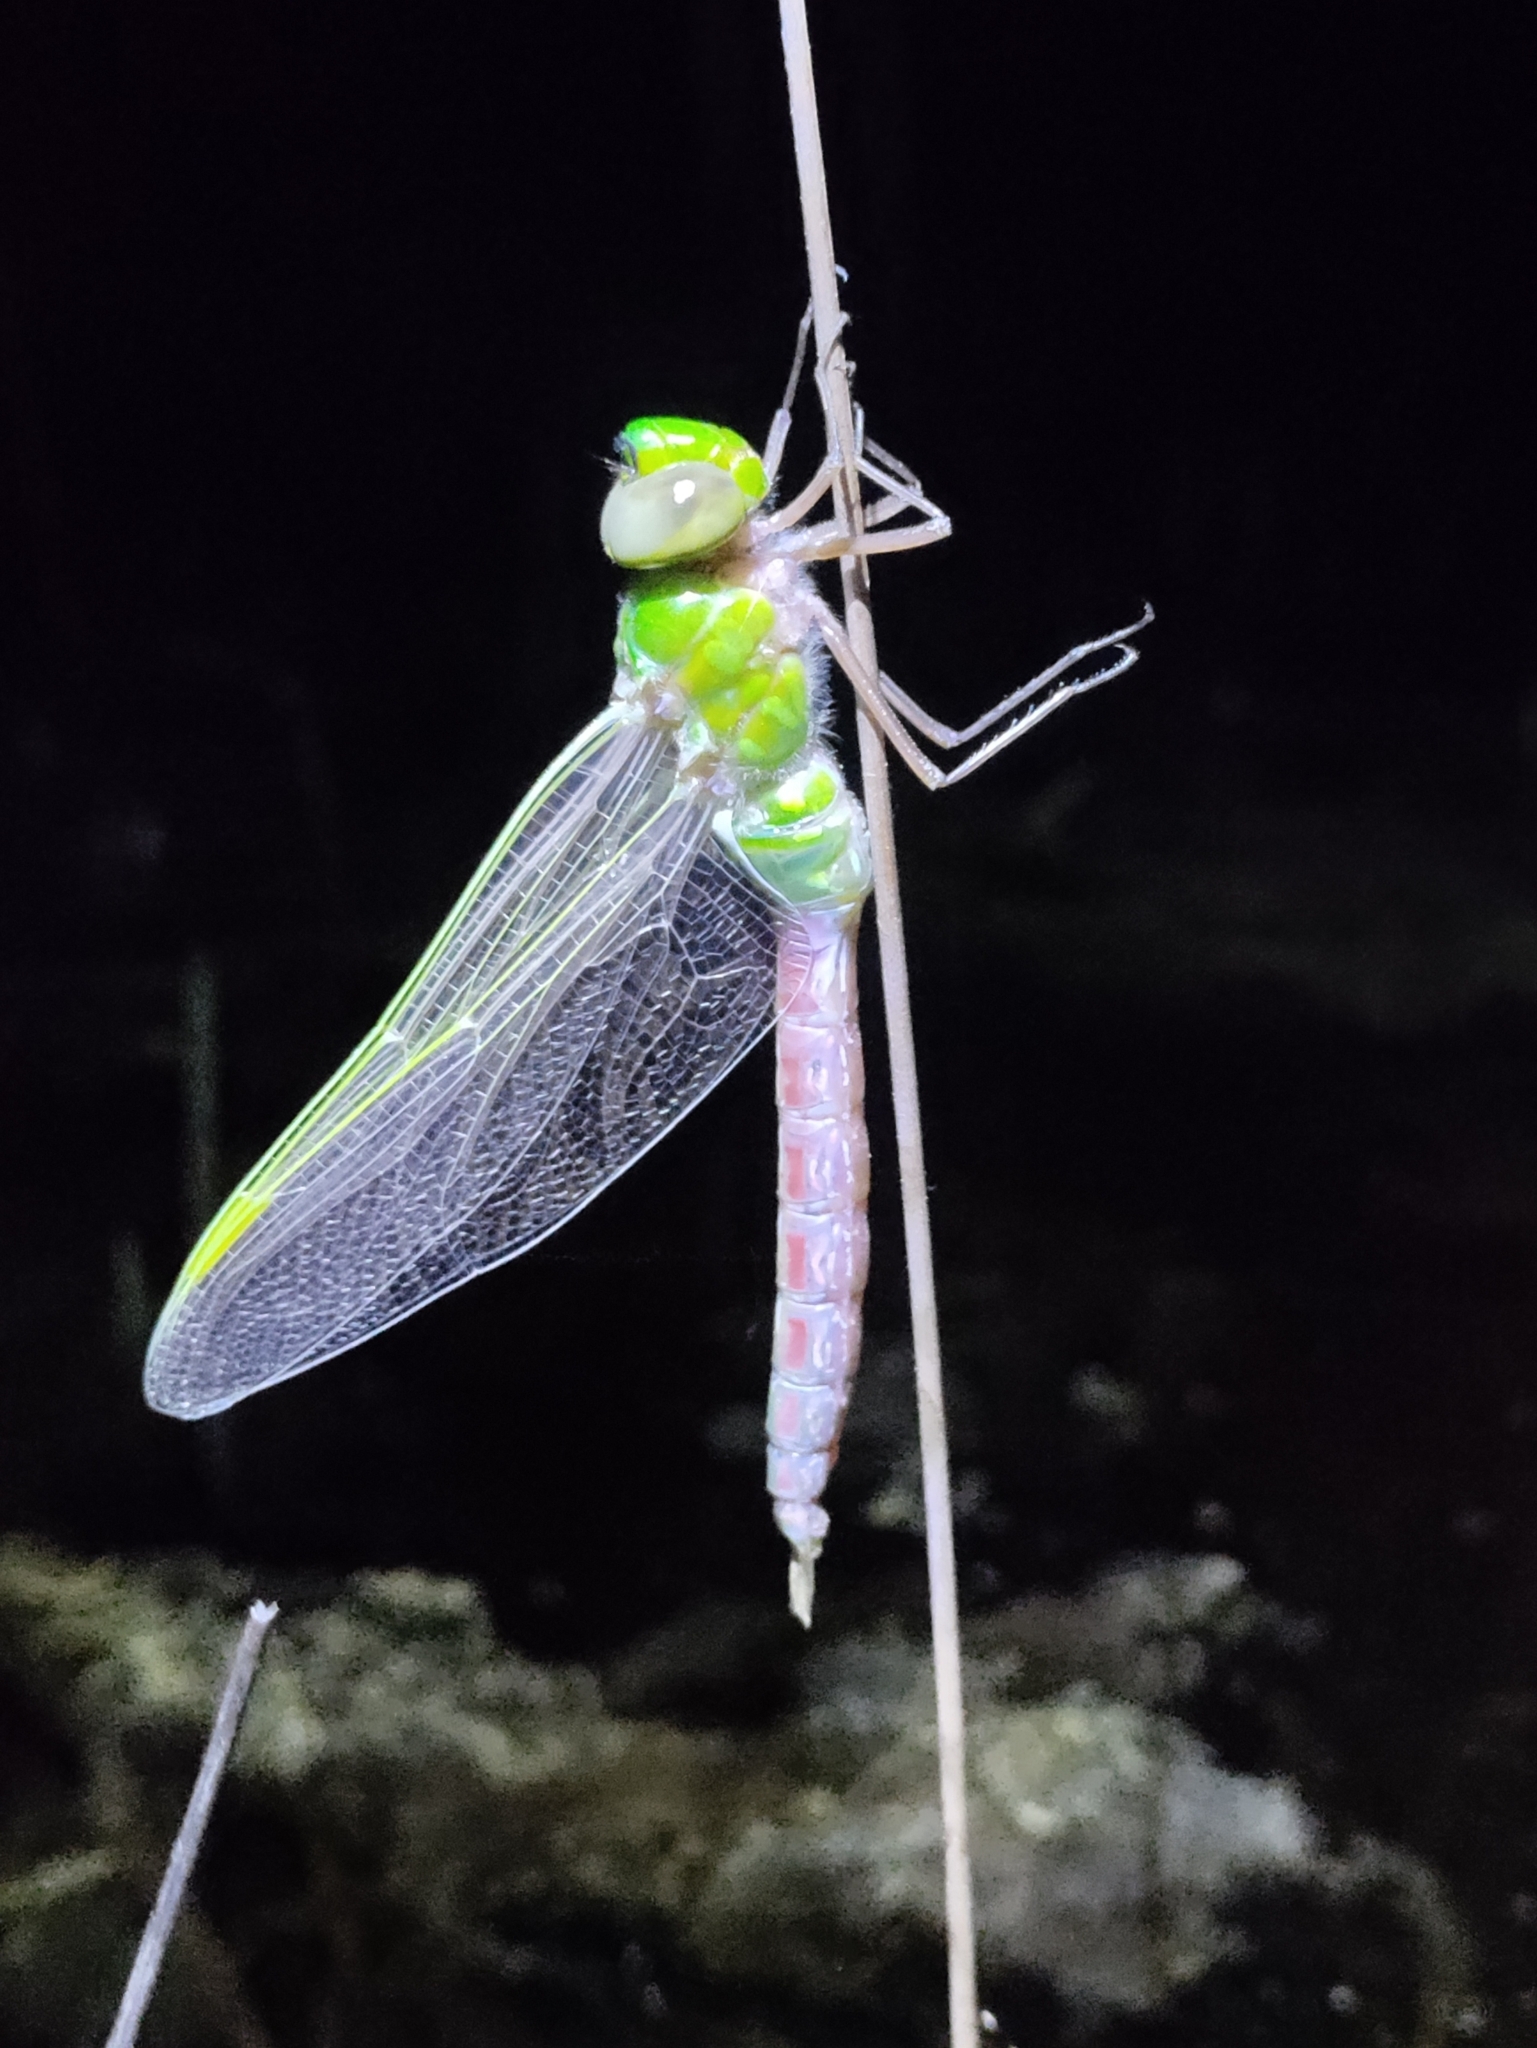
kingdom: Animalia
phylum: Arthropoda
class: Insecta
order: Odonata
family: Aeshnidae
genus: Anax
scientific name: Anax junius
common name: Common green darner
